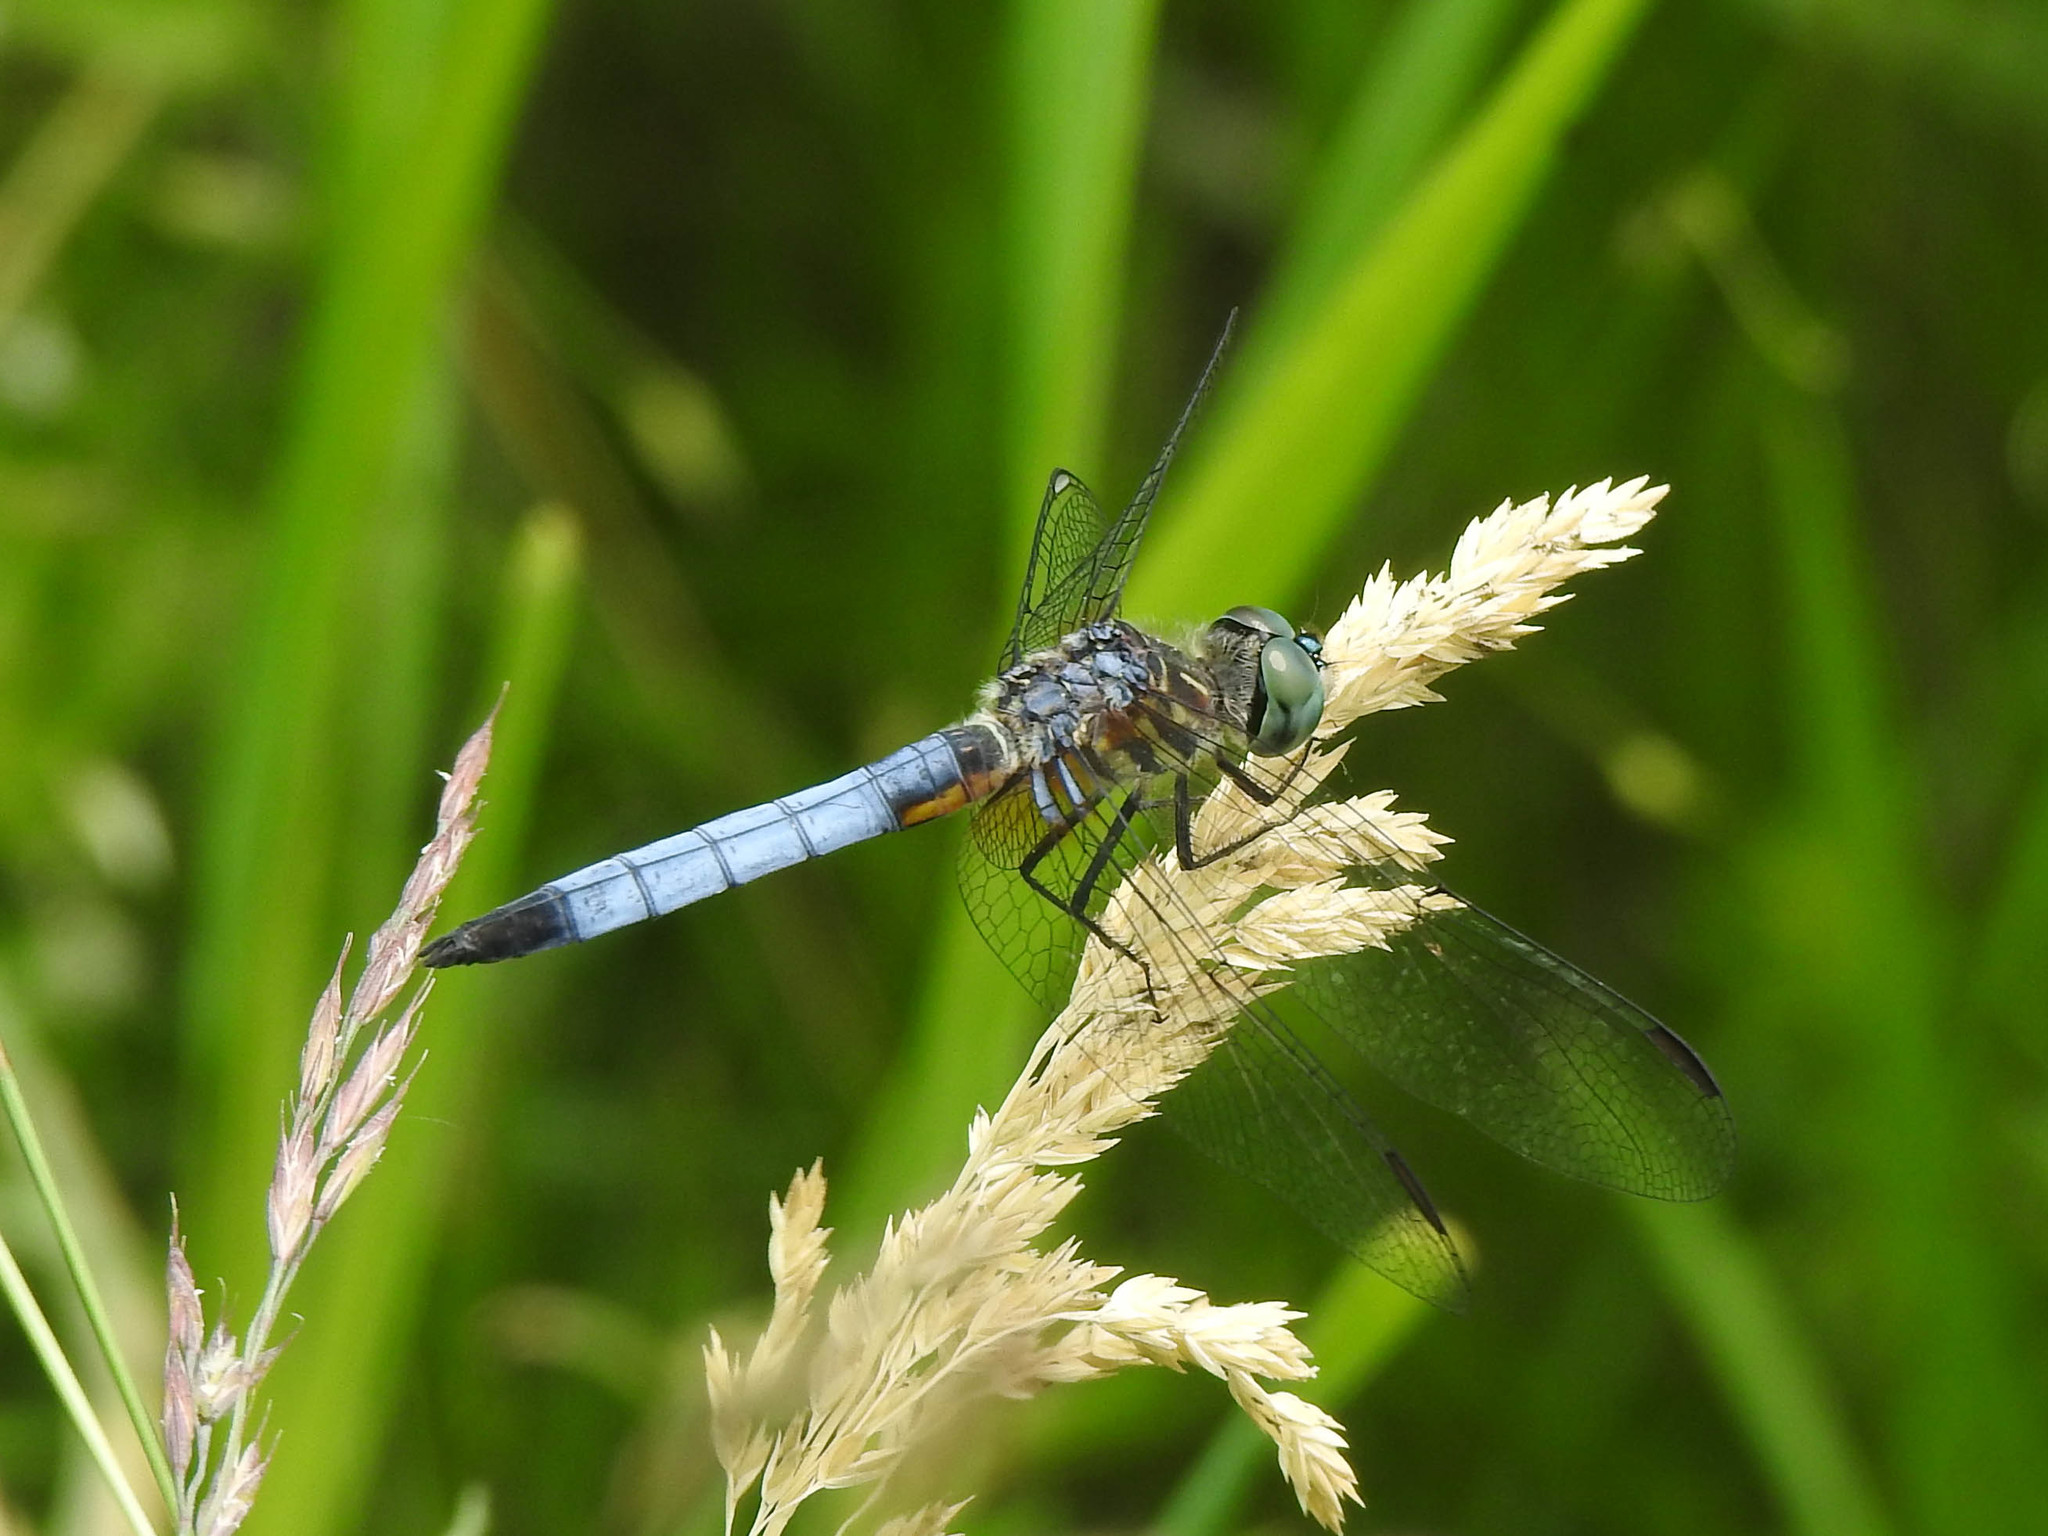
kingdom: Animalia
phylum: Arthropoda
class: Insecta
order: Odonata
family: Libellulidae
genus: Pachydiplax
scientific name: Pachydiplax longipennis
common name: Blue dasher
